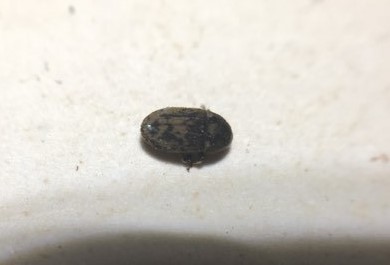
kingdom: Animalia
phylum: Arthropoda
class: Insecta
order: Coleoptera
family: Curculionidae
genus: Hylesinus
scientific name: Hylesinus varius
